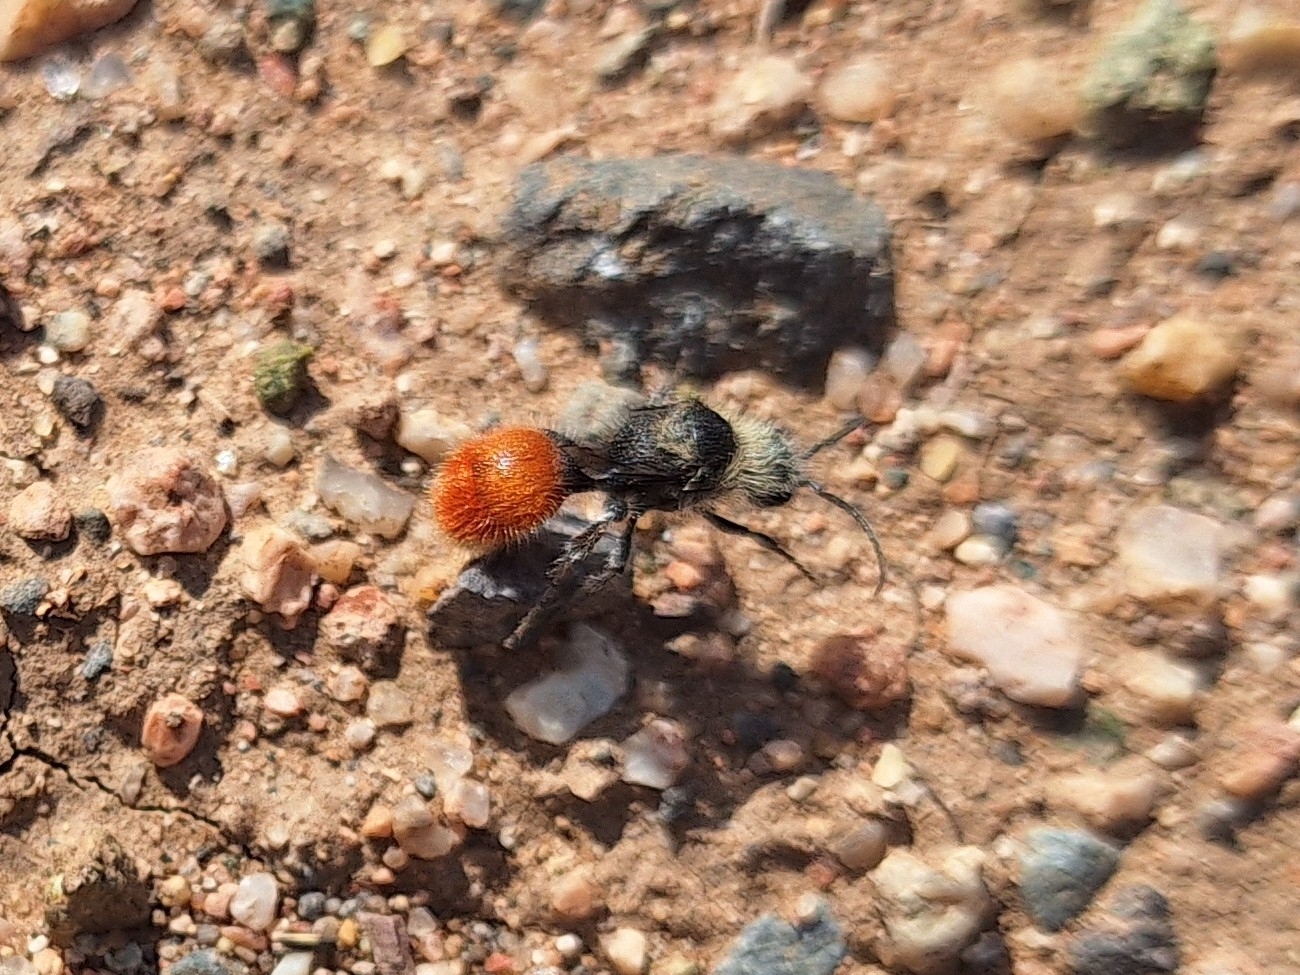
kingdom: Animalia
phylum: Arthropoda
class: Insecta
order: Hymenoptera
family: Mutillidae
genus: Dasymutilla
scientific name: Dasymutilla foxi
